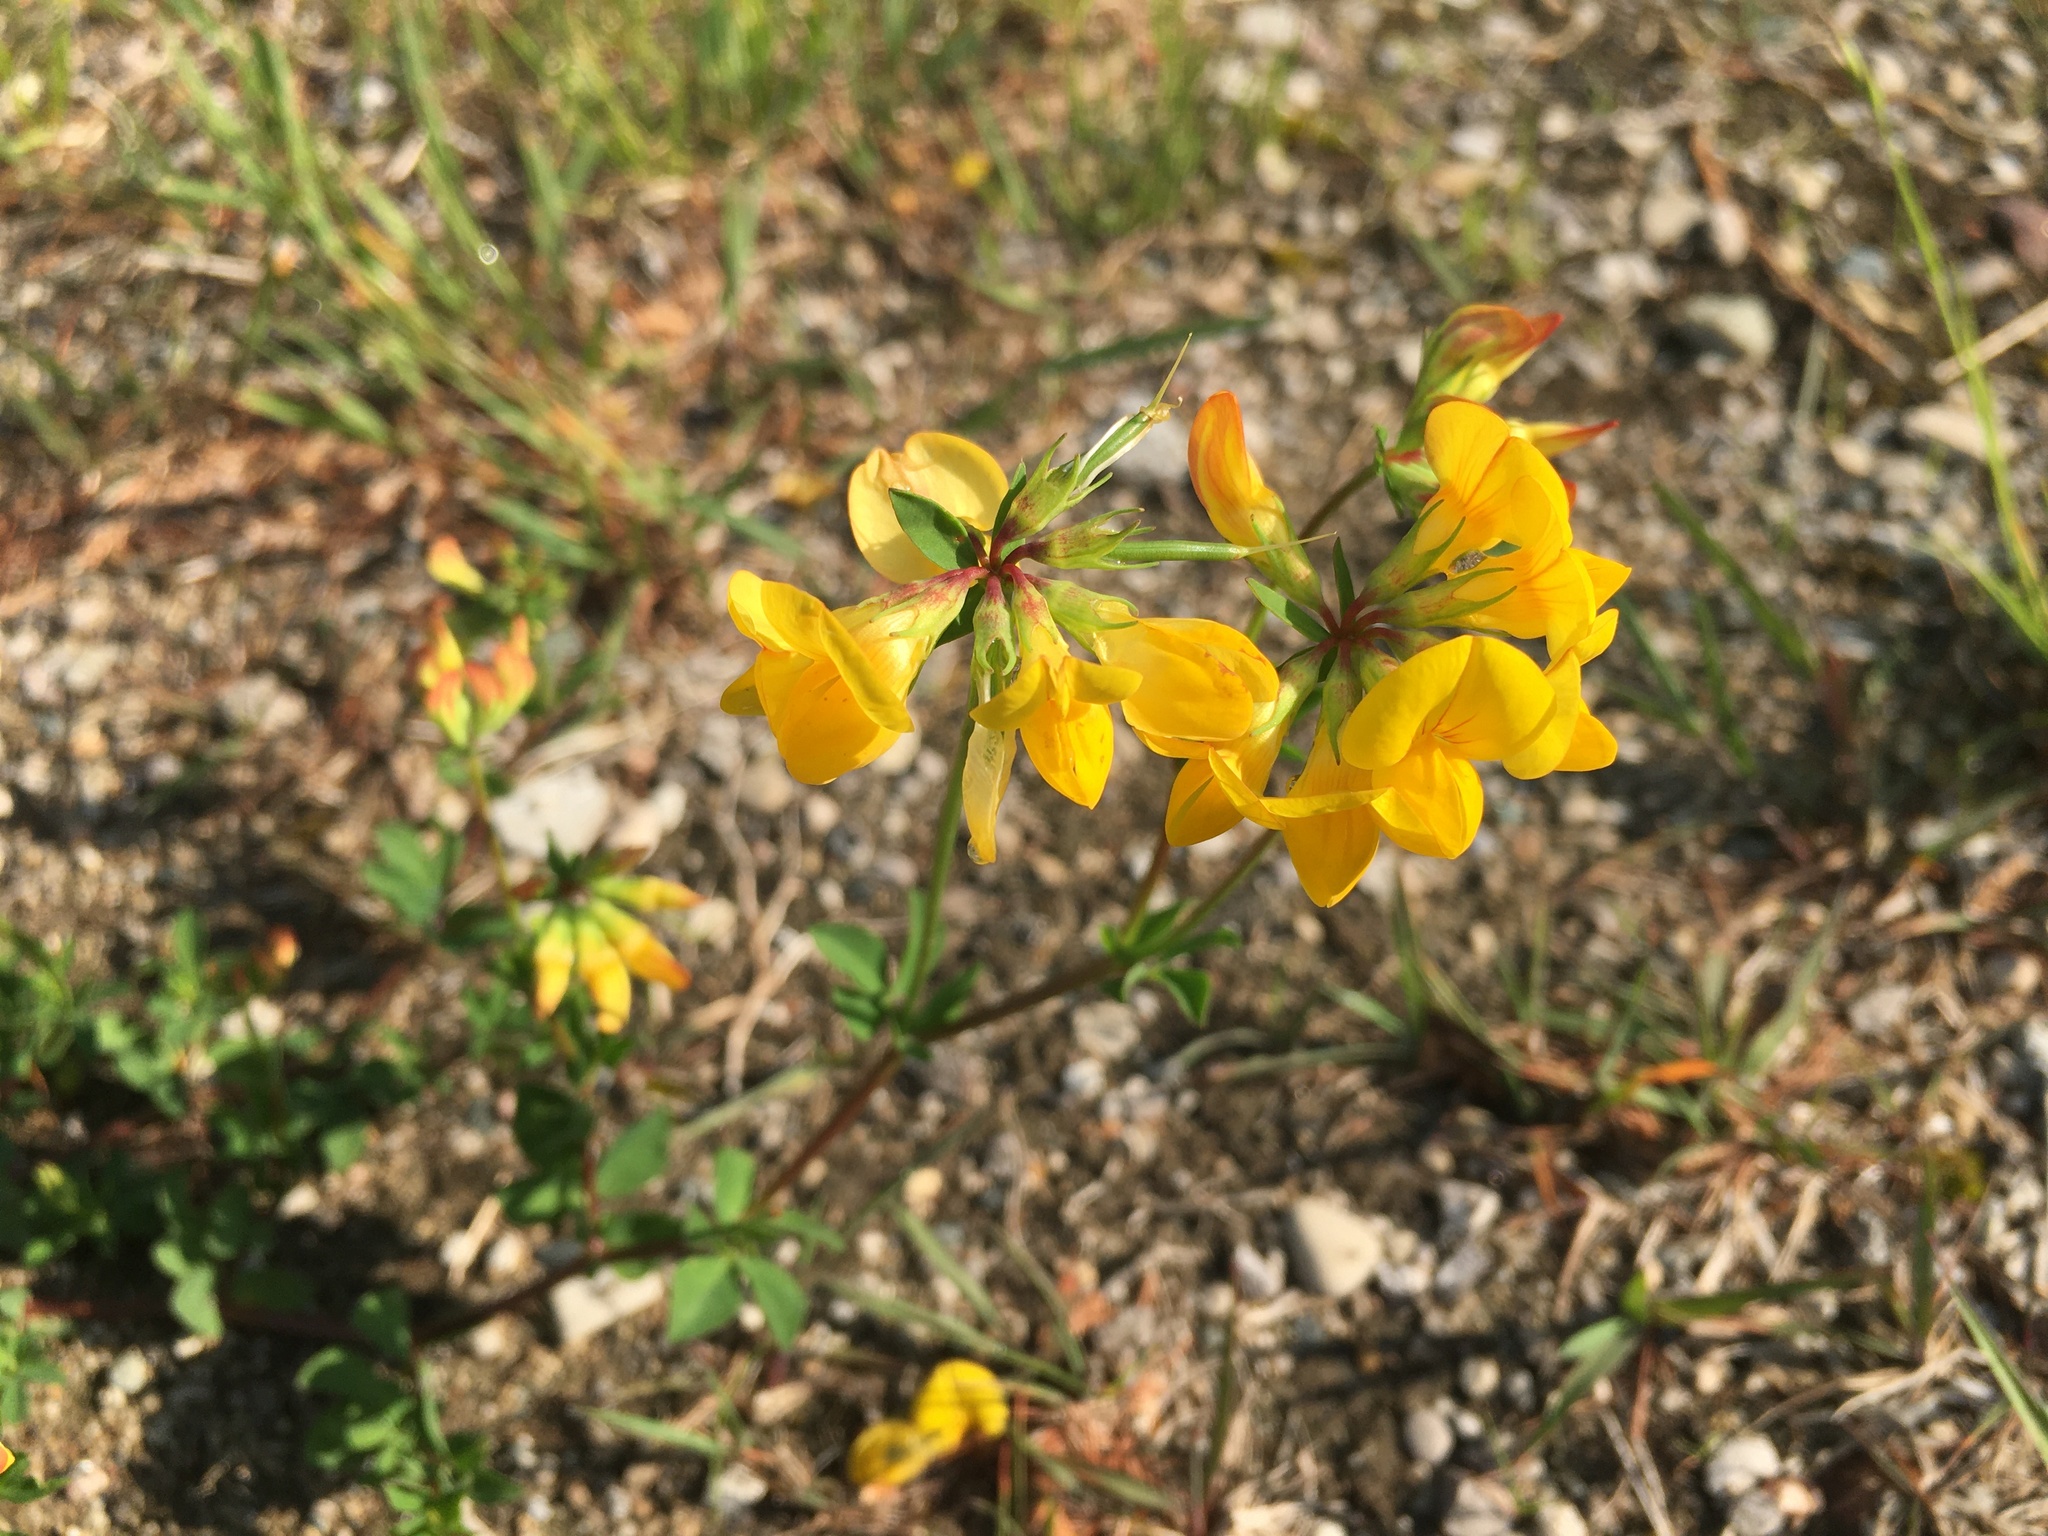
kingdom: Plantae
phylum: Tracheophyta
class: Magnoliopsida
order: Fabales
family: Fabaceae
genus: Lotus
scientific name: Lotus corniculatus
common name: Common bird's-foot-trefoil
